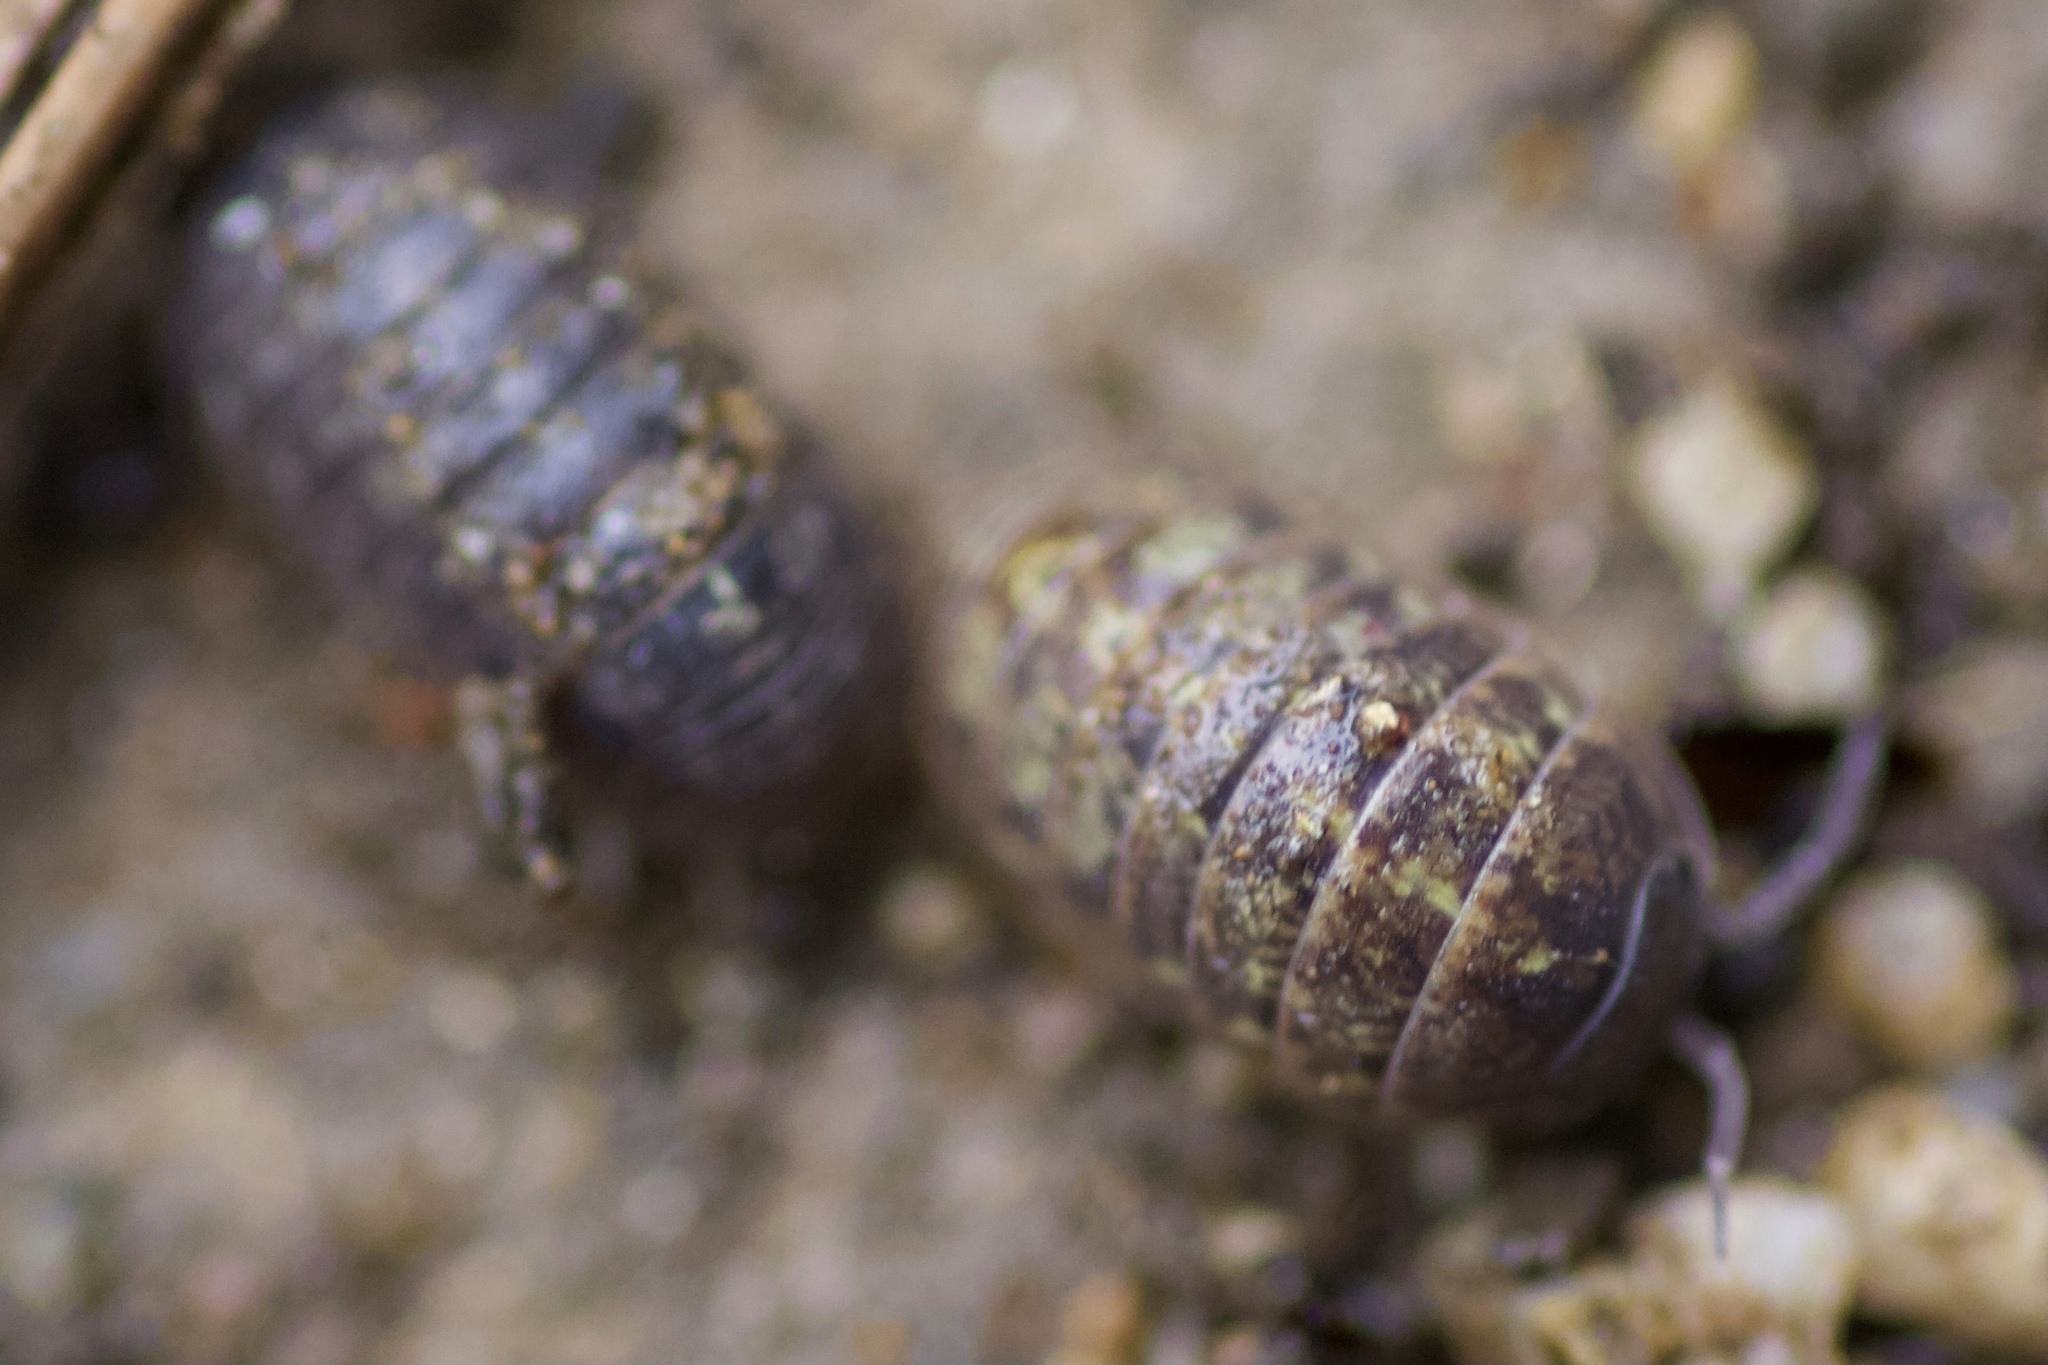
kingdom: Animalia
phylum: Arthropoda
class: Malacostraca
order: Isopoda
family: Armadillidiidae
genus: Armadillidium
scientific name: Armadillidium vulgare
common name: Common pill woodlouse
